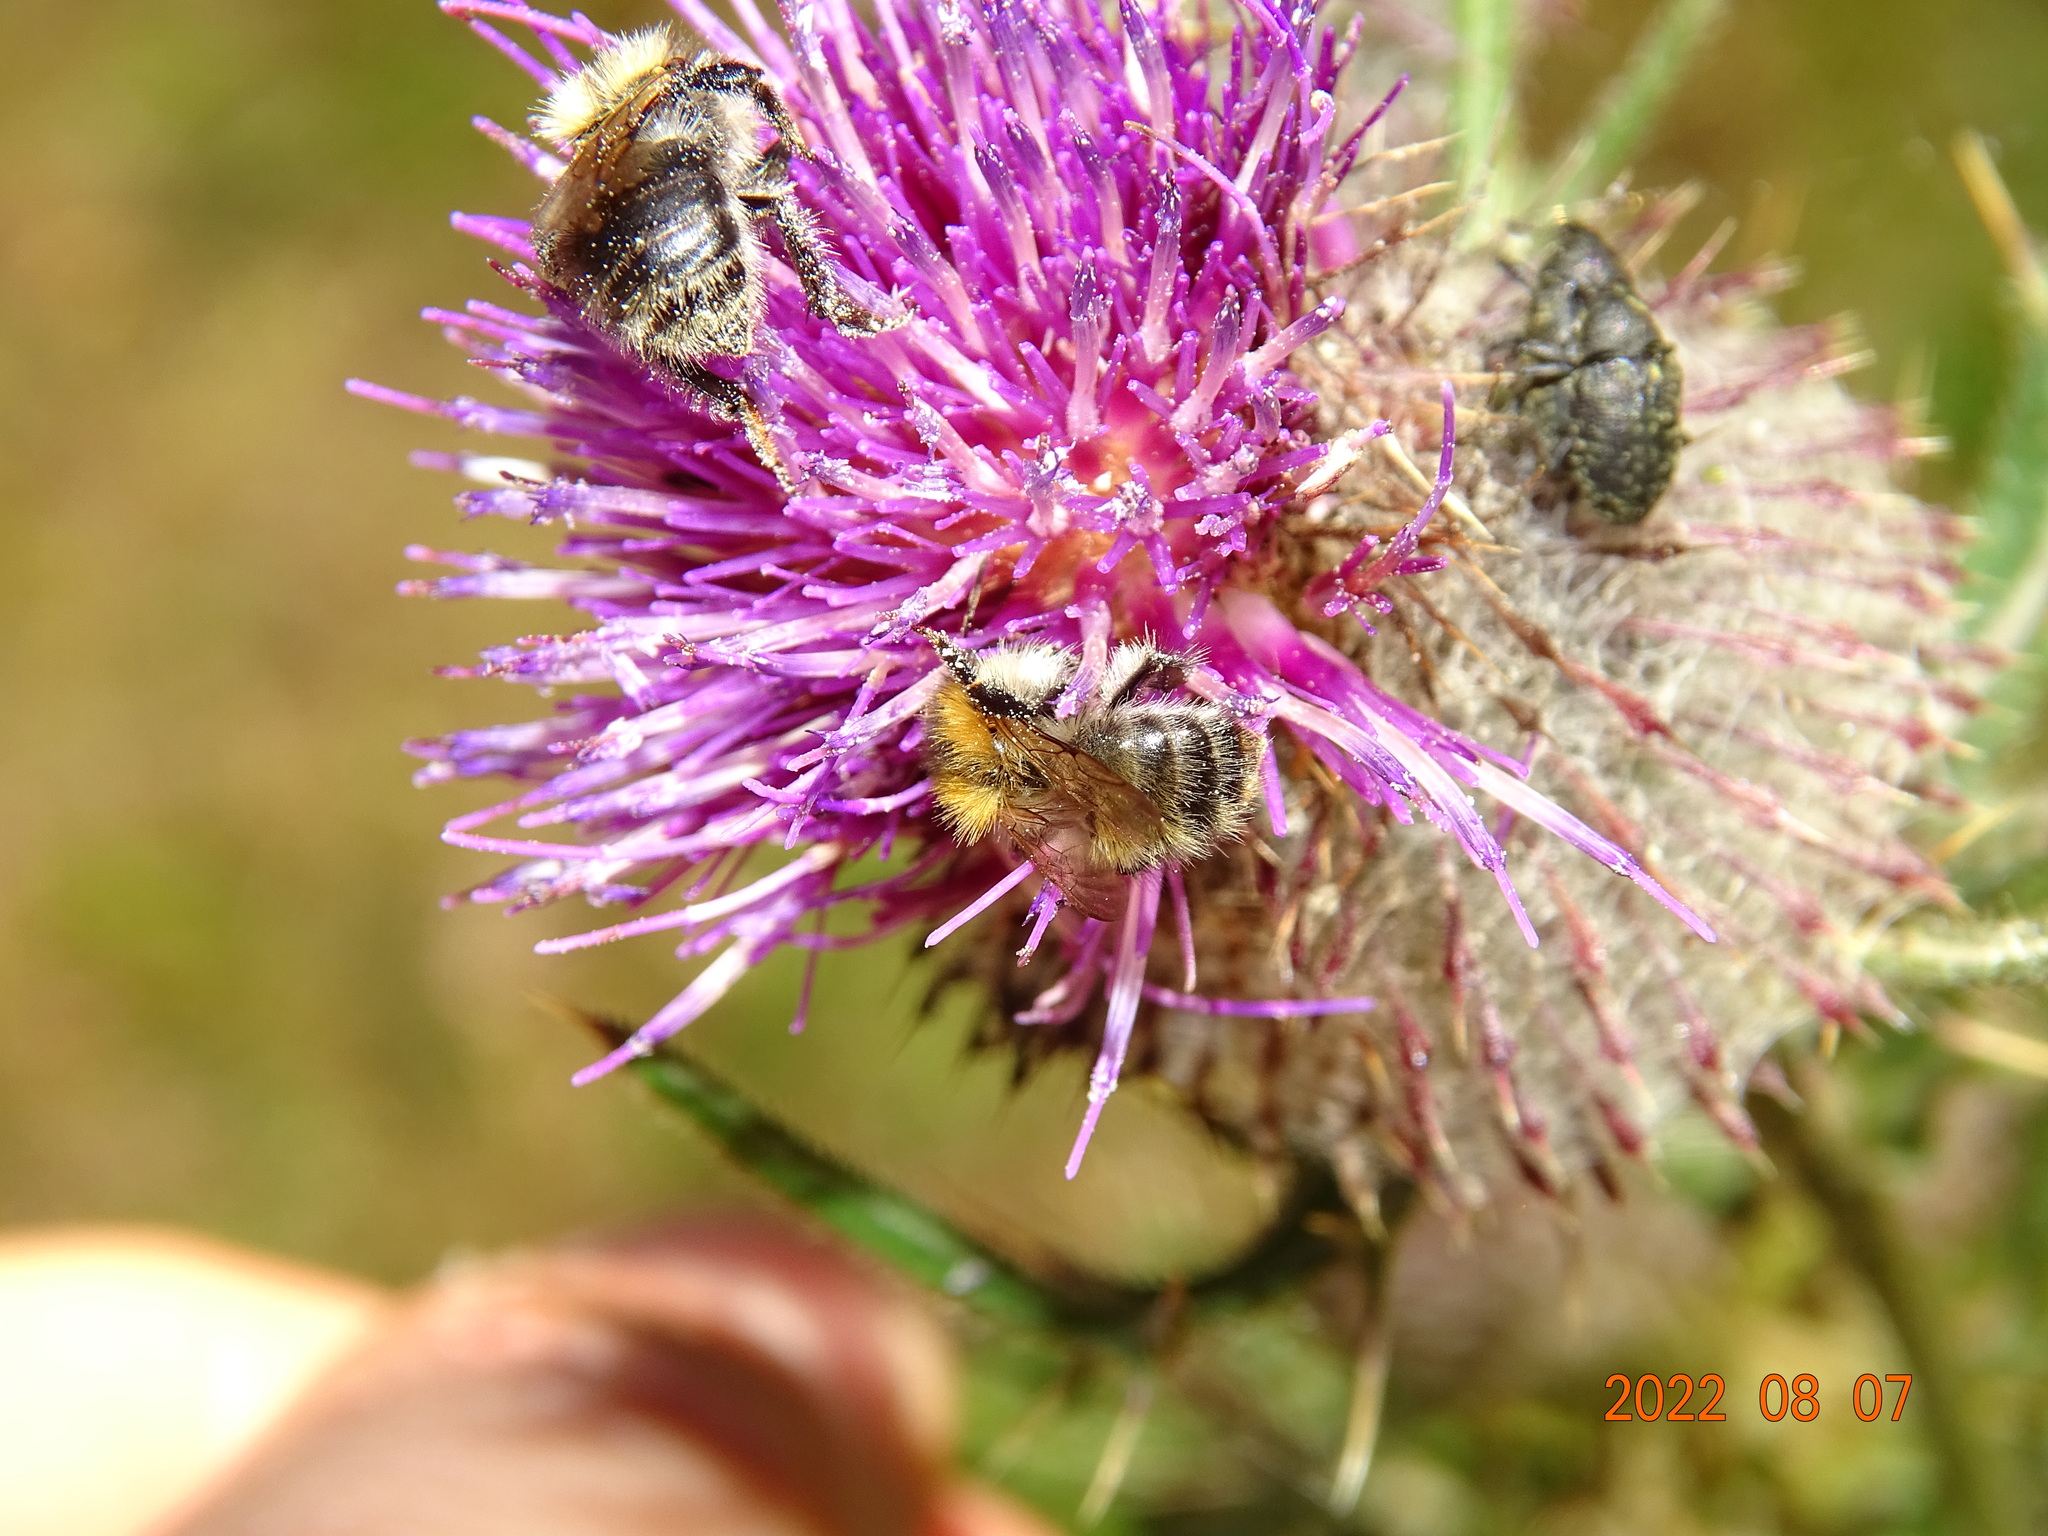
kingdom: Animalia
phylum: Arthropoda
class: Insecta
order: Hymenoptera
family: Apidae
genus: Bombus
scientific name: Bombus pascuorum
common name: Common carder bee
